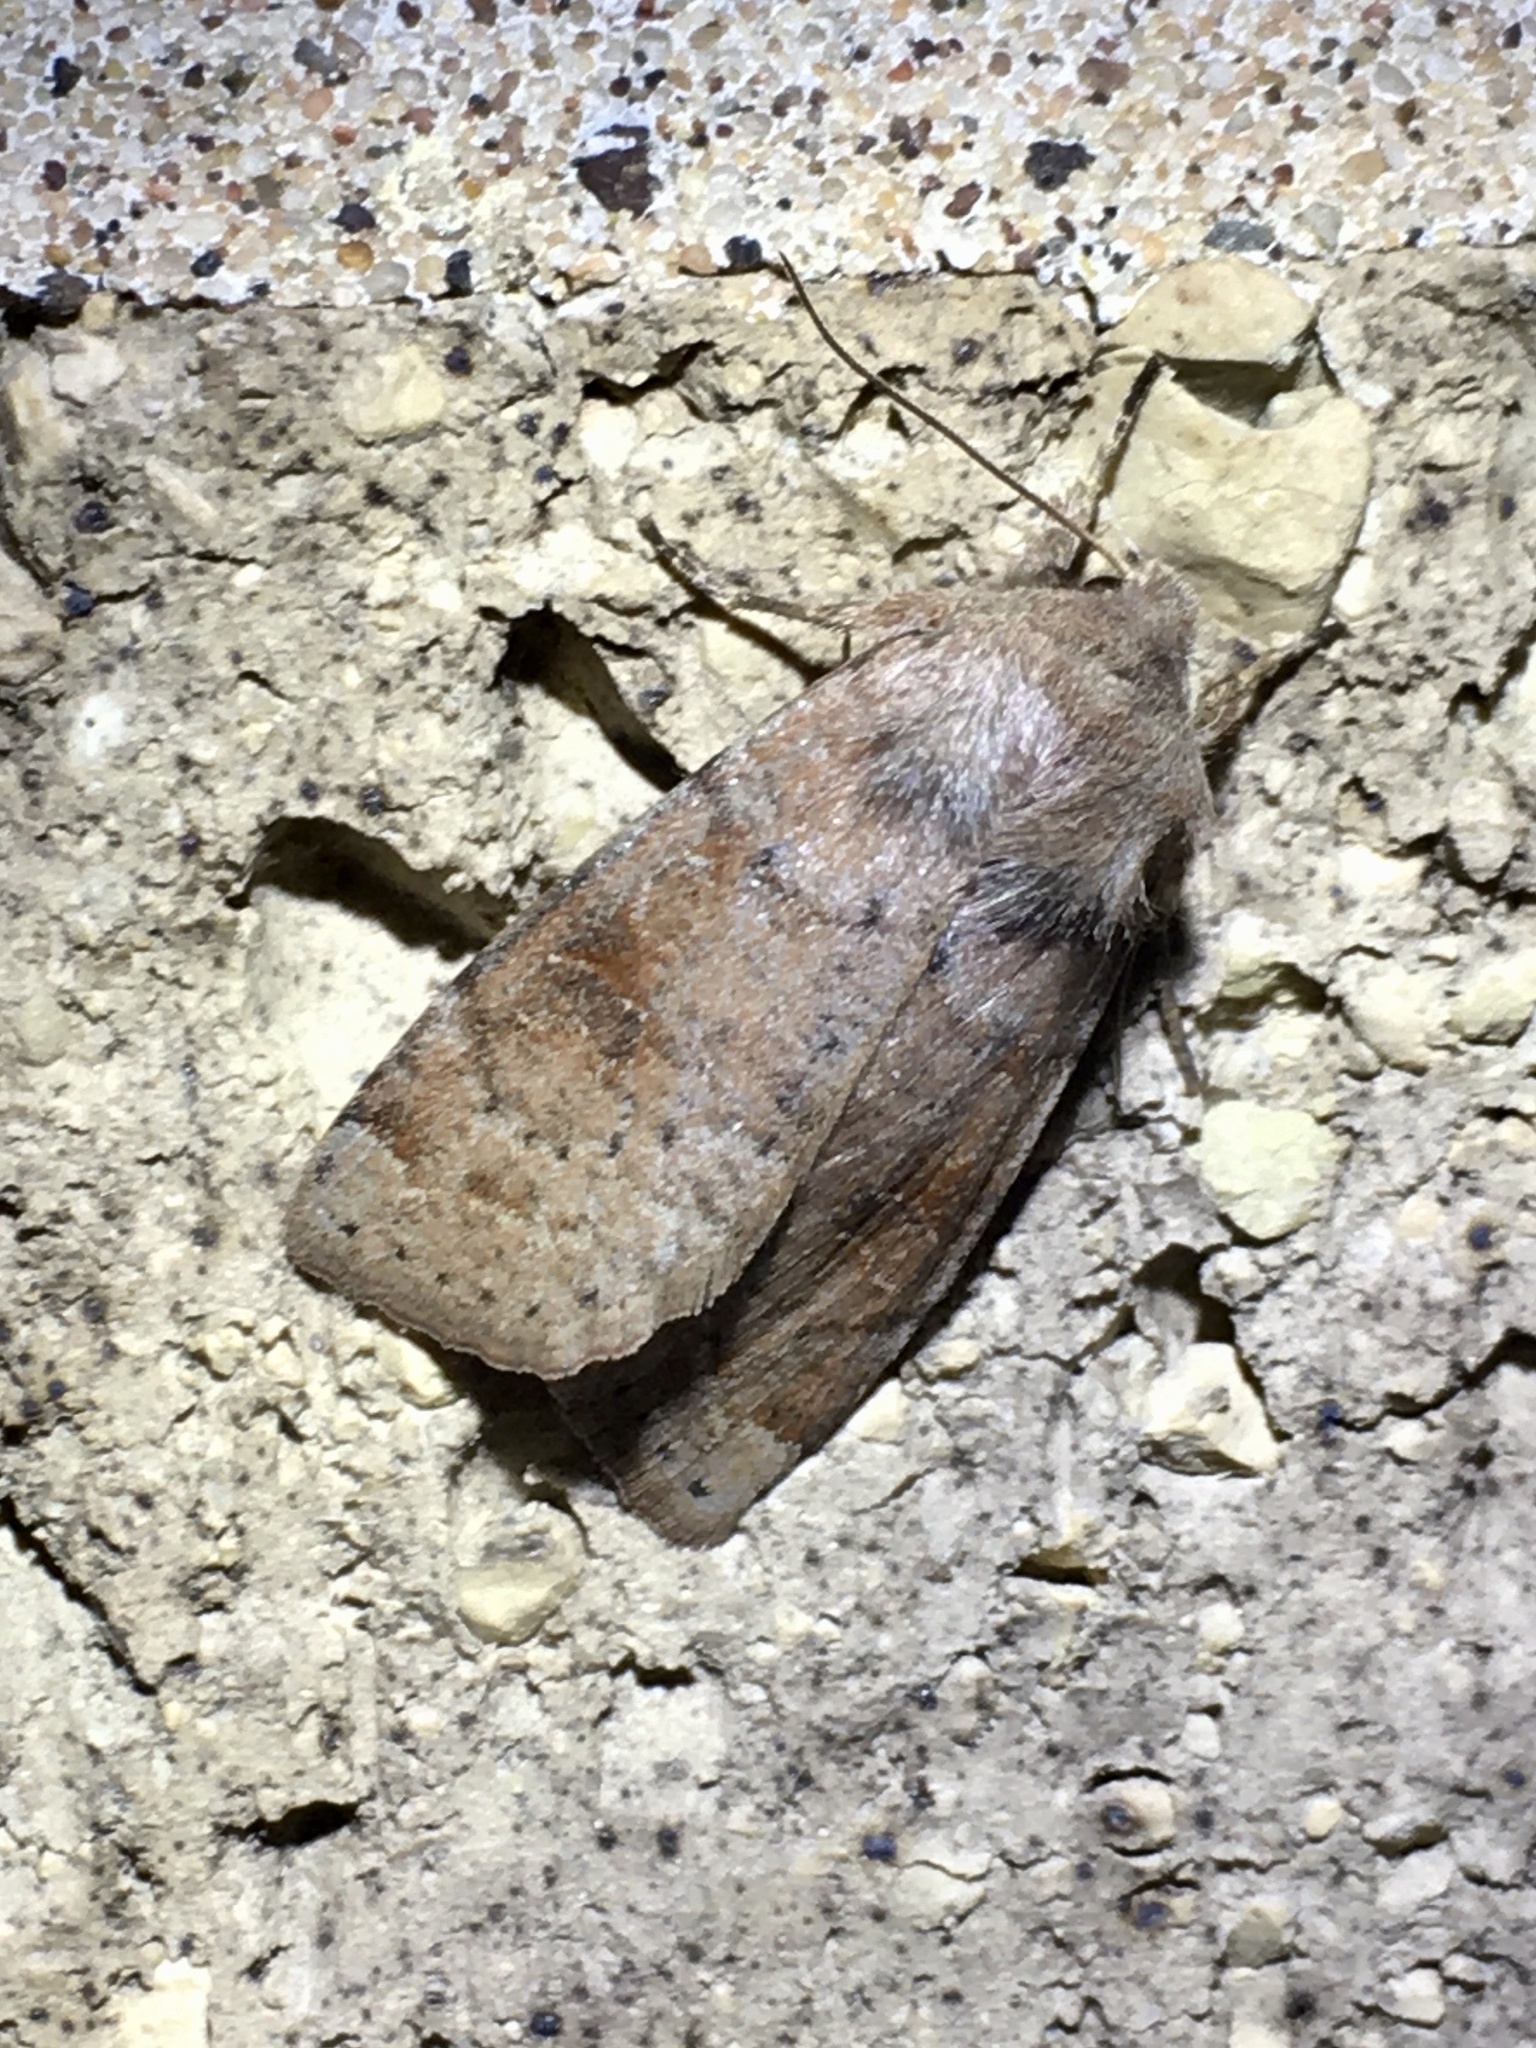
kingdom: Animalia
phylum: Arthropoda
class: Insecta
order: Lepidoptera
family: Noctuidae
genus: Orthosia
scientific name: Orthosia alurina
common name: Gray quaker
